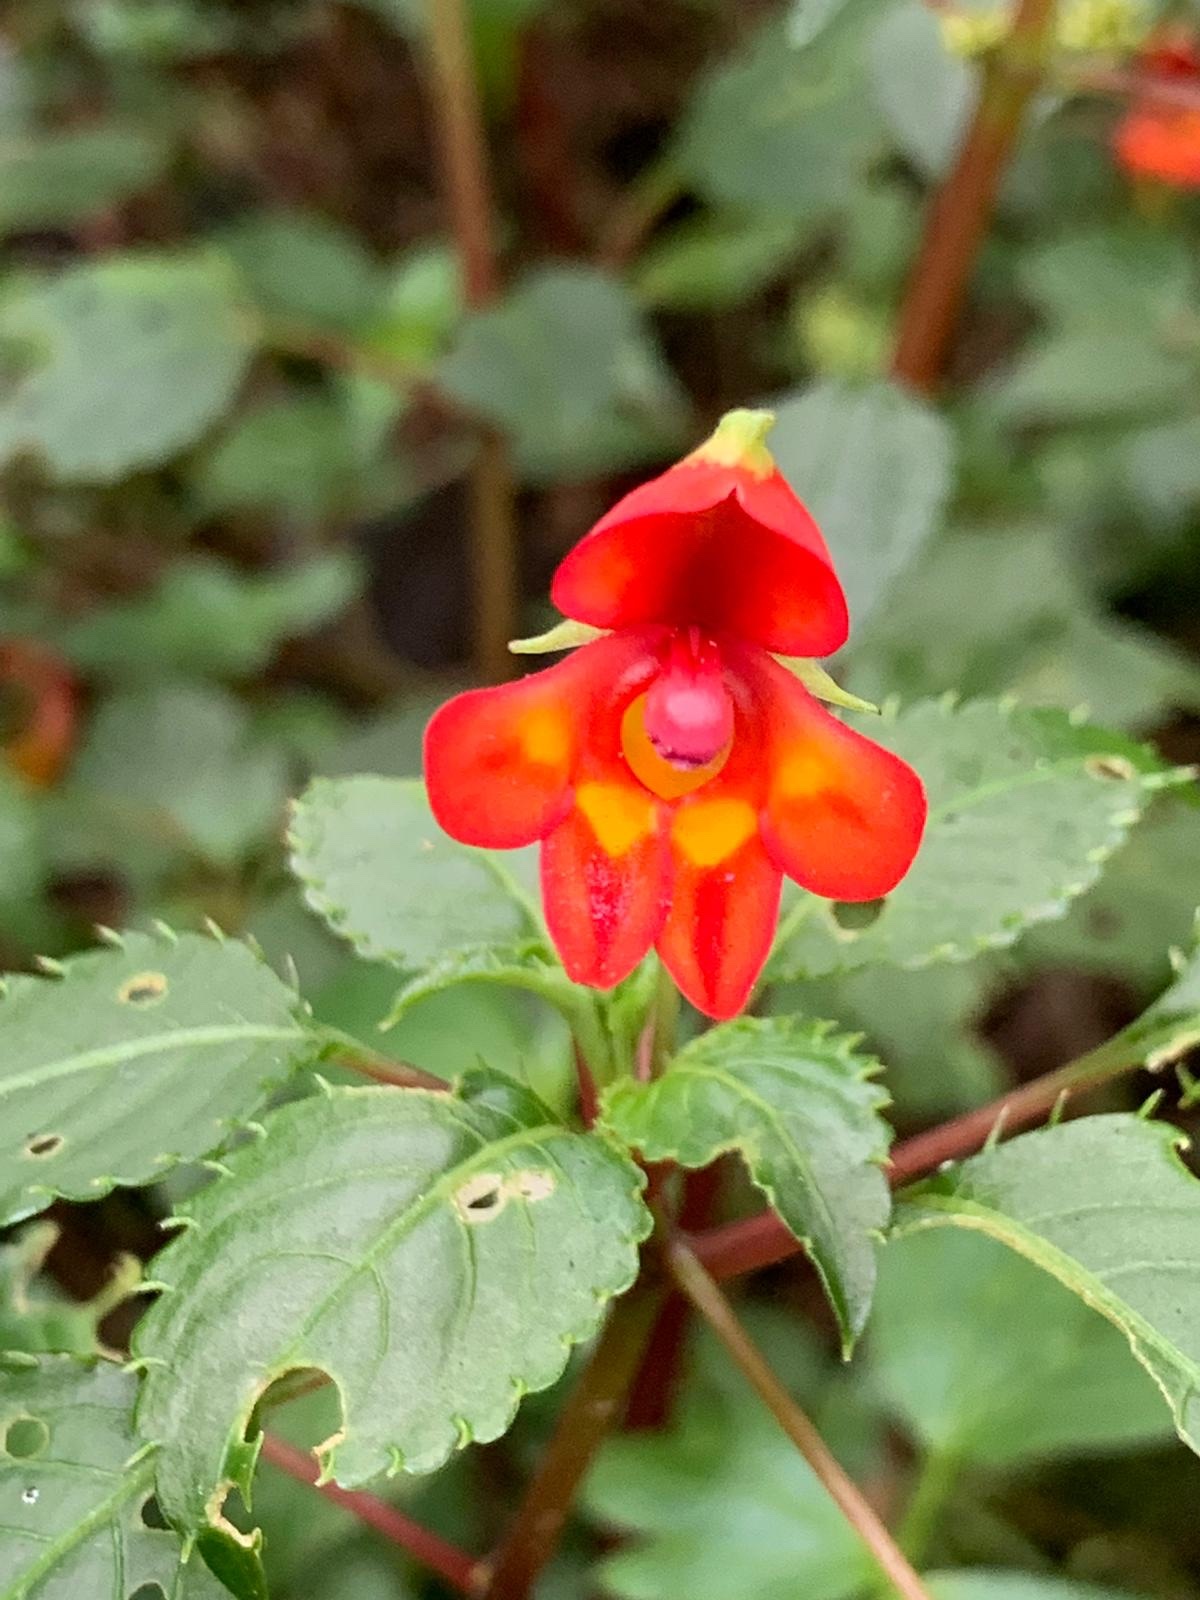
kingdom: Plantae
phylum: Tracheophyta
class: Magnoliopsida
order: Ericales
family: Balsaminaceae
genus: Impatiens
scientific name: Impatiens kilimanjari
